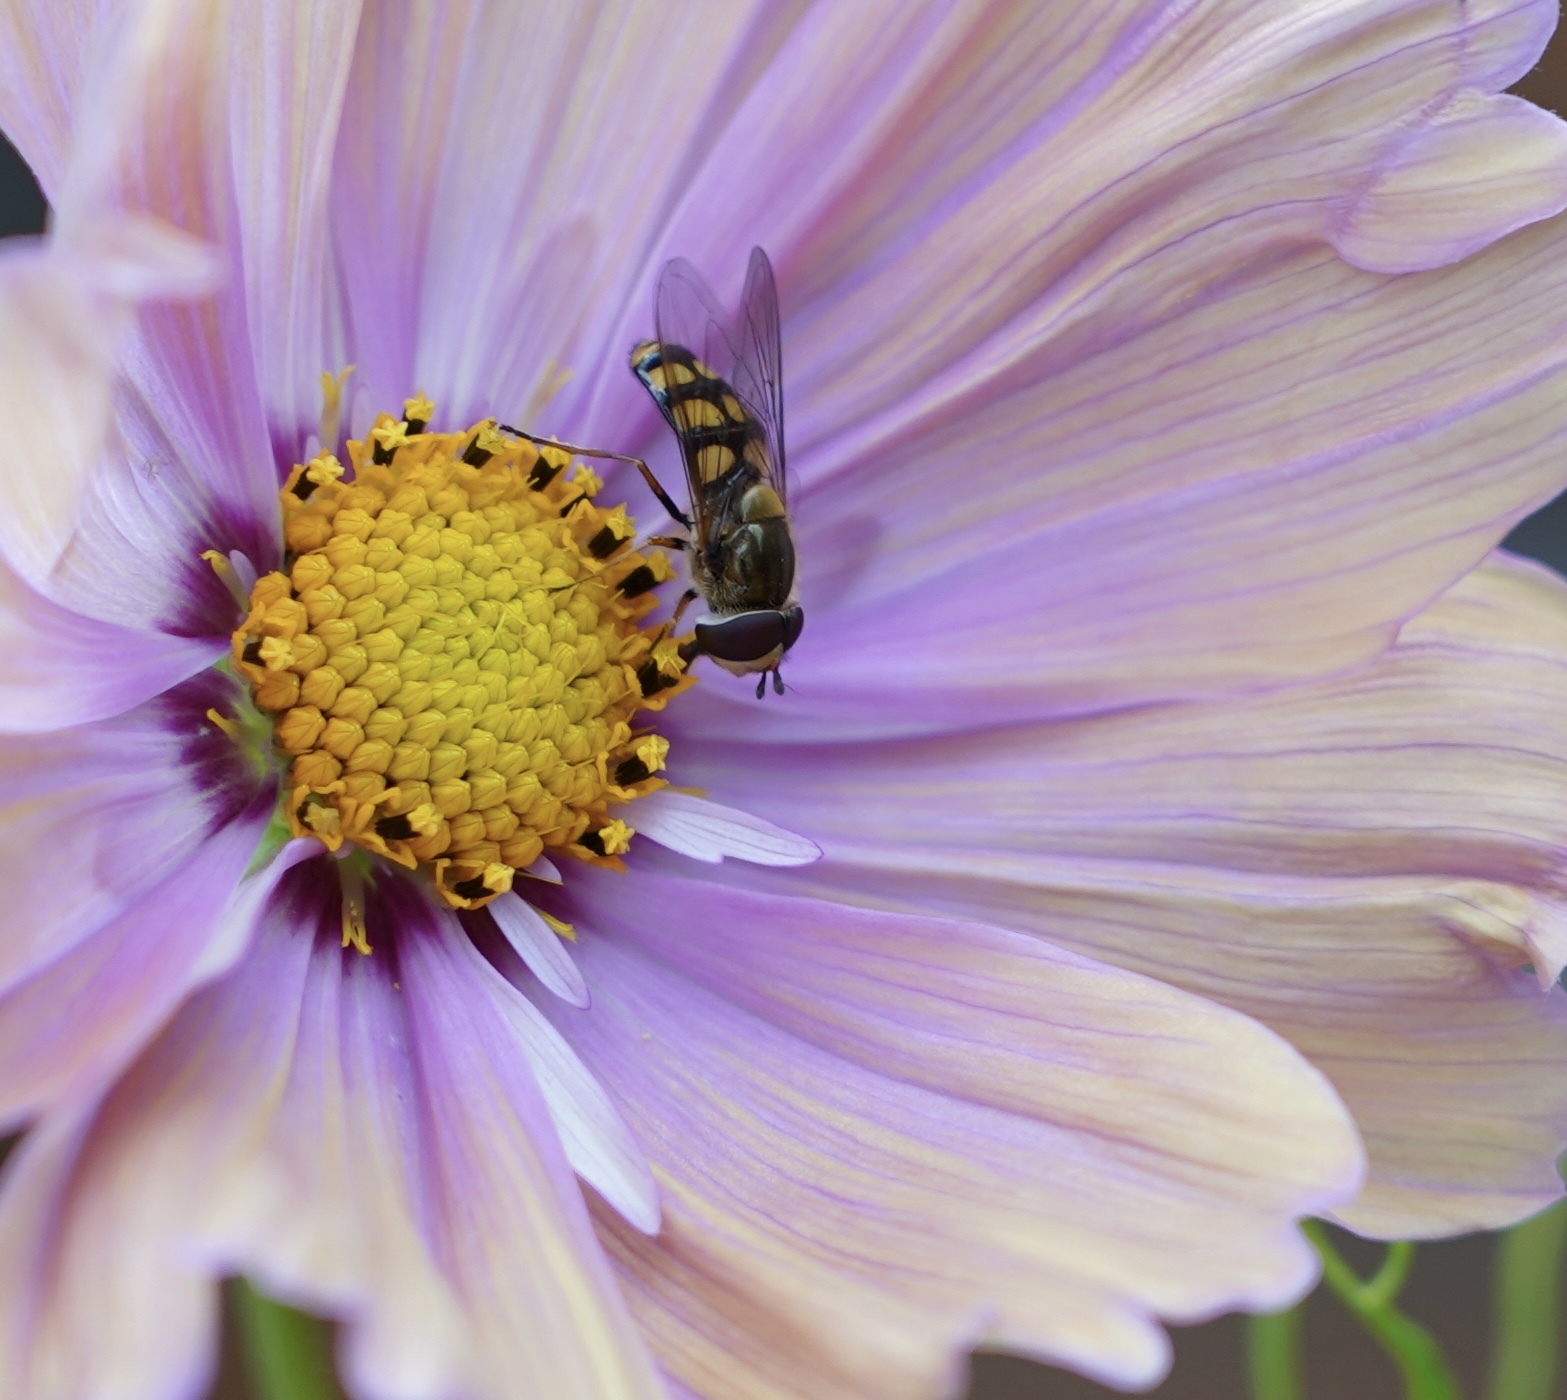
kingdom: Animalia
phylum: Arthropoda
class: Insecta
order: Diptera
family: Syrphidae
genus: Eupeodes
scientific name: Eupeodes
